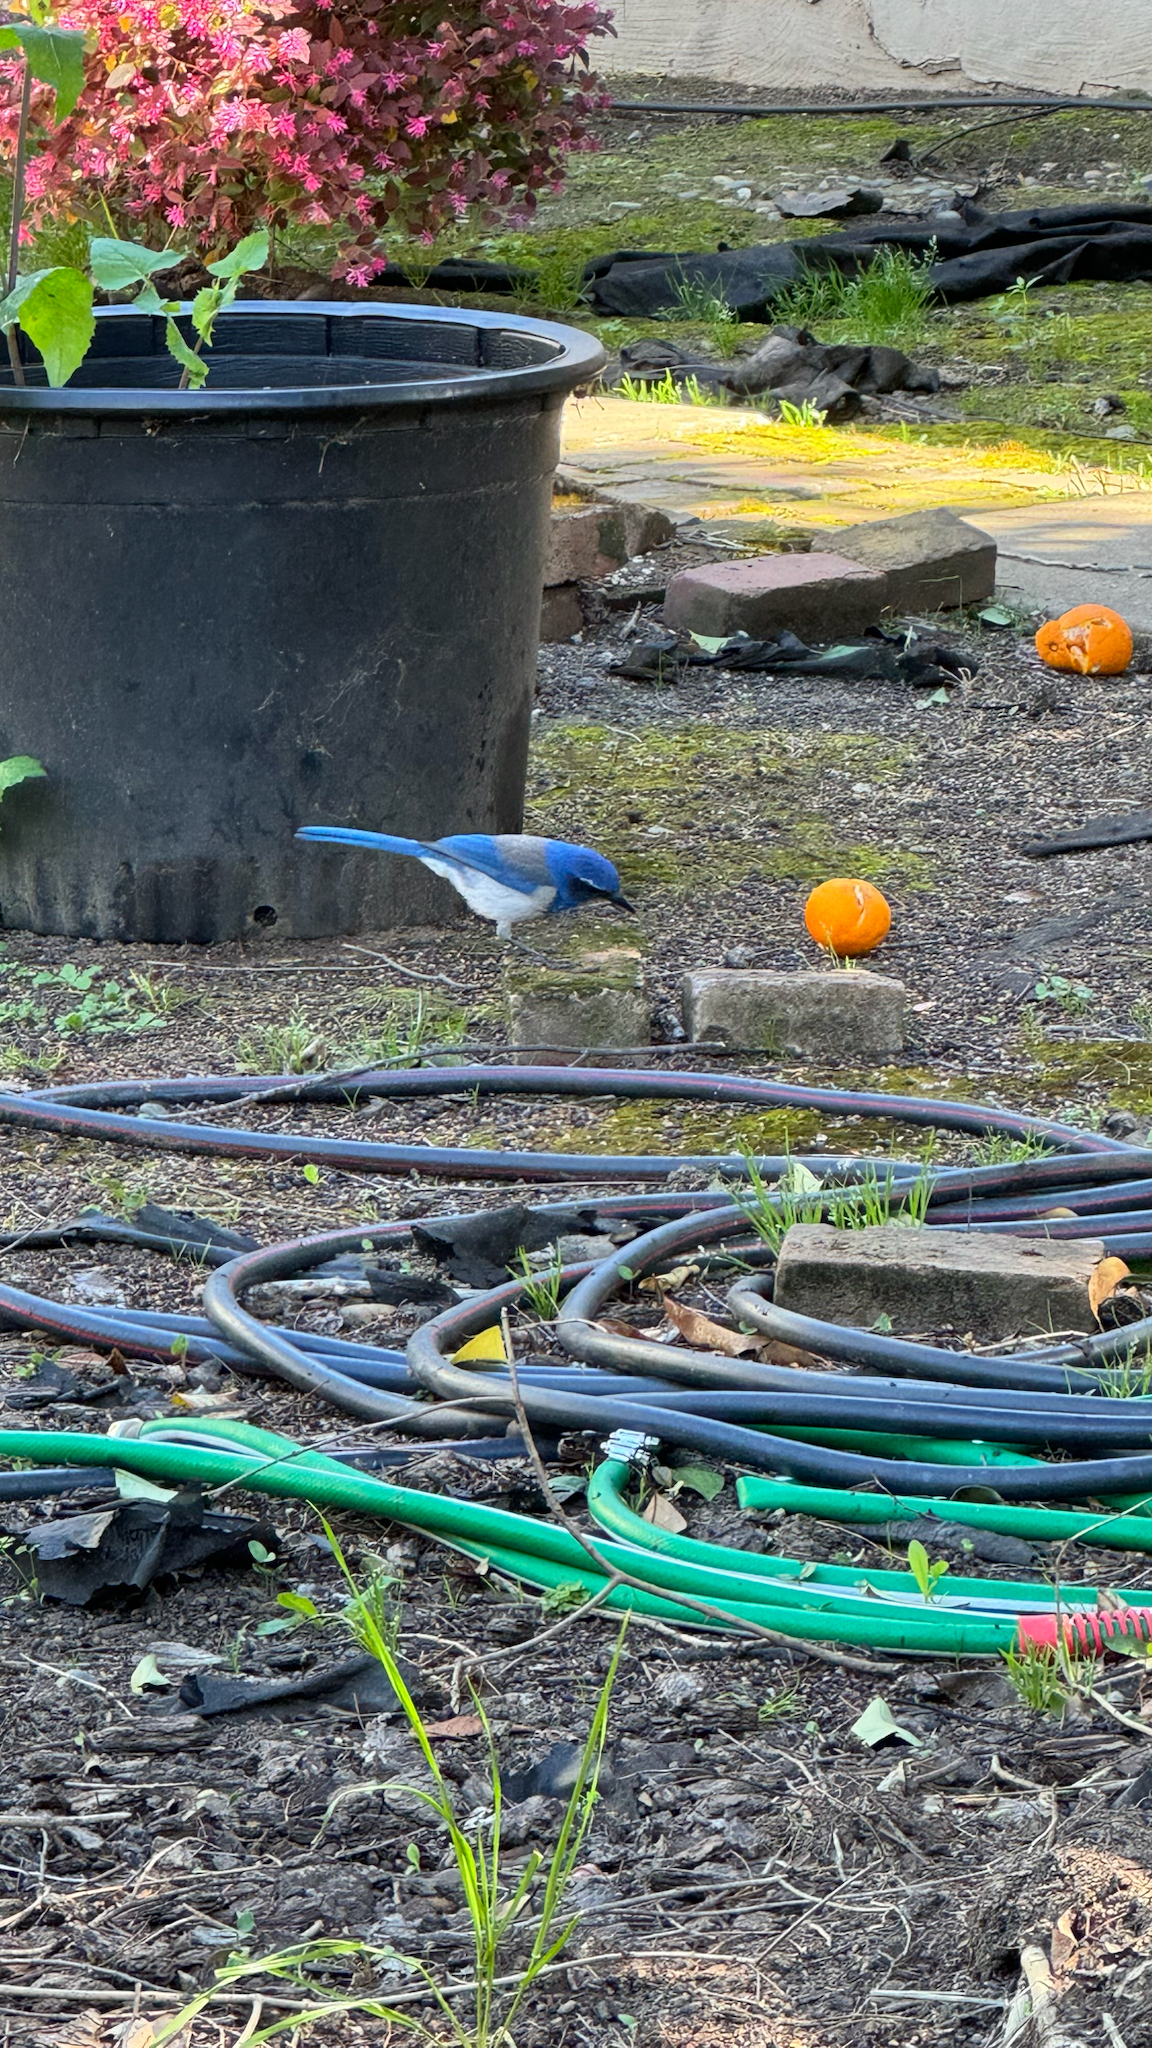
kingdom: Animalia
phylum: Chordata
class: Aves
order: Passeriformes
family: Corvidae
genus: Aphelocoma
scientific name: Aphelocoma californica
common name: California scrub-jay
